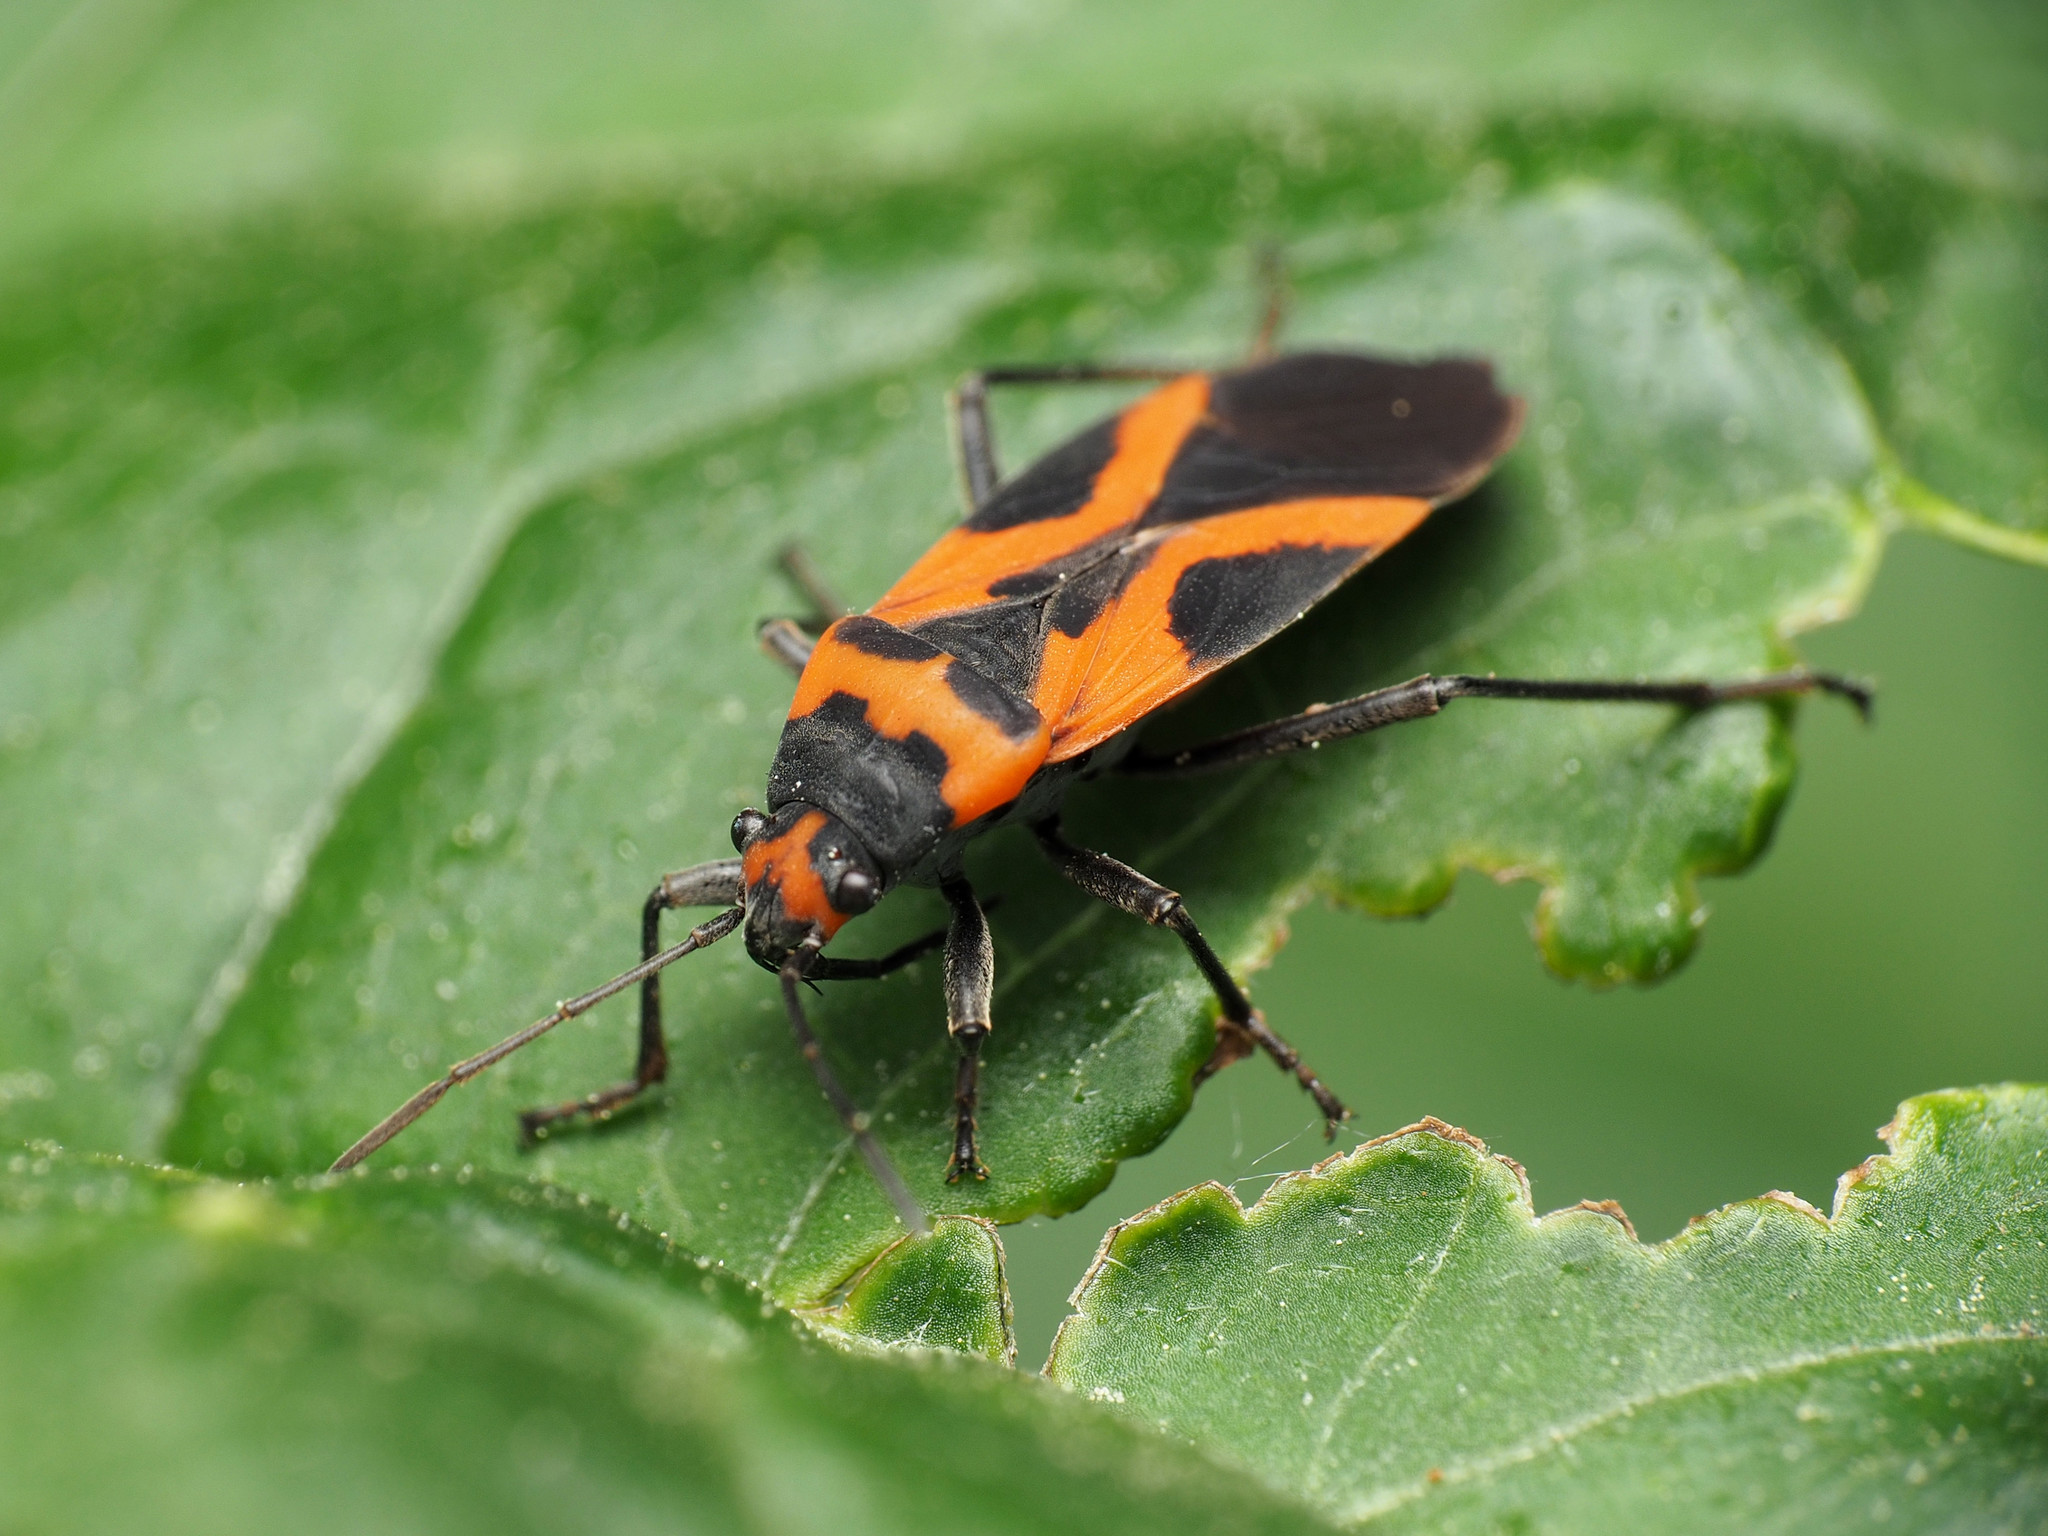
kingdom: Animalia
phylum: Arthropoda
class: Insecta
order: Hemiptera
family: Lygaeidae
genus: Lygaeus
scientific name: Lygaeus turcicus
